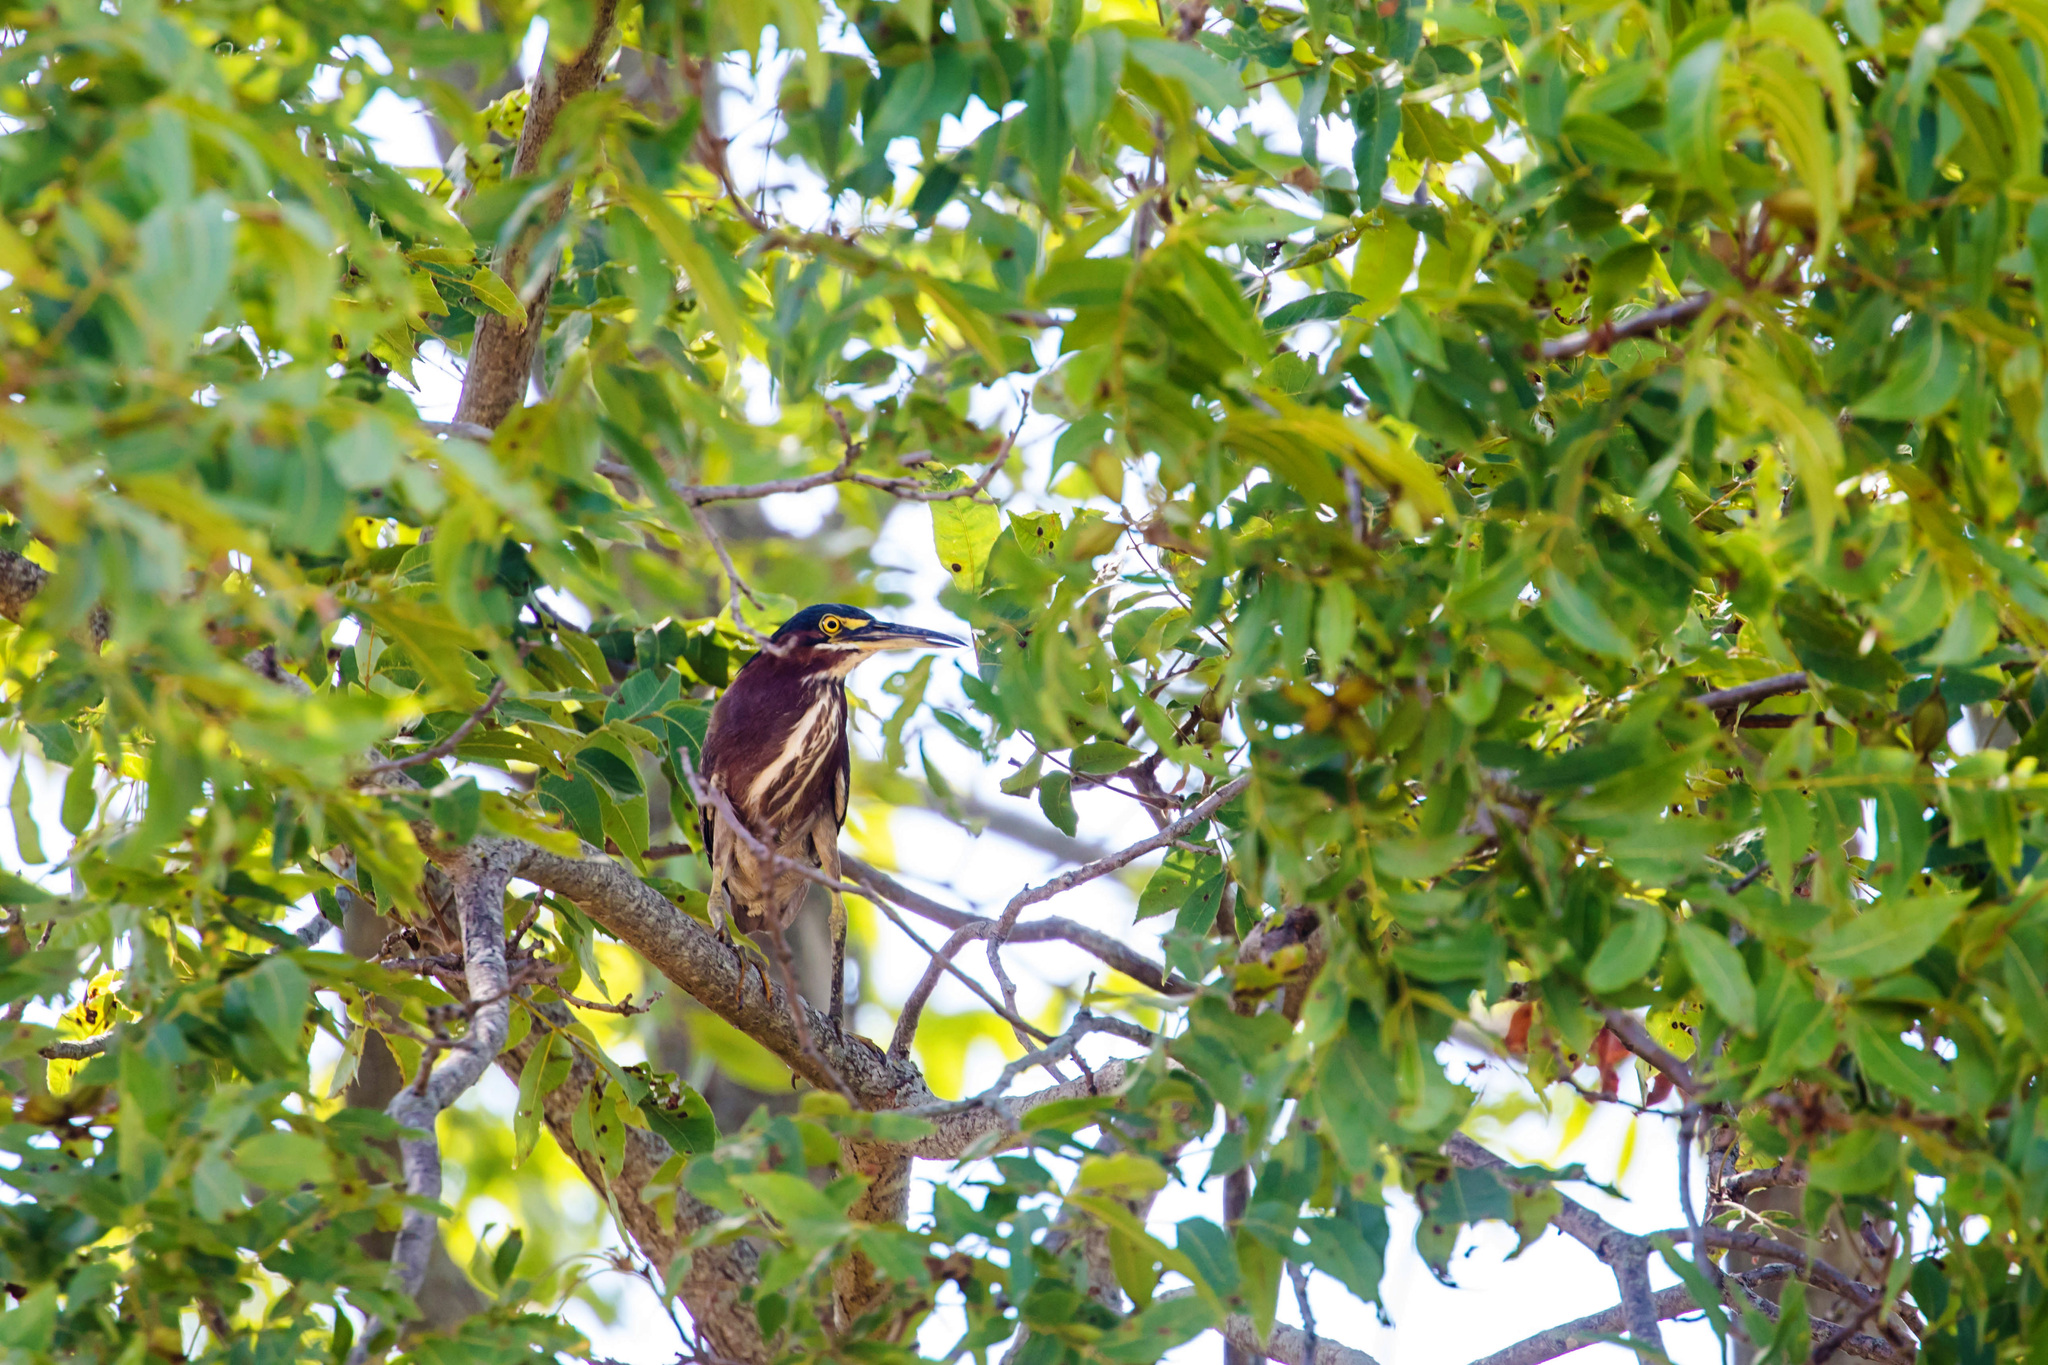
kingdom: Animalia
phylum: Chordata
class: Aves
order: Pelecaniformes
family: Ardeidae
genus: Butorides
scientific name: Butorides virescens
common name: Green heron
